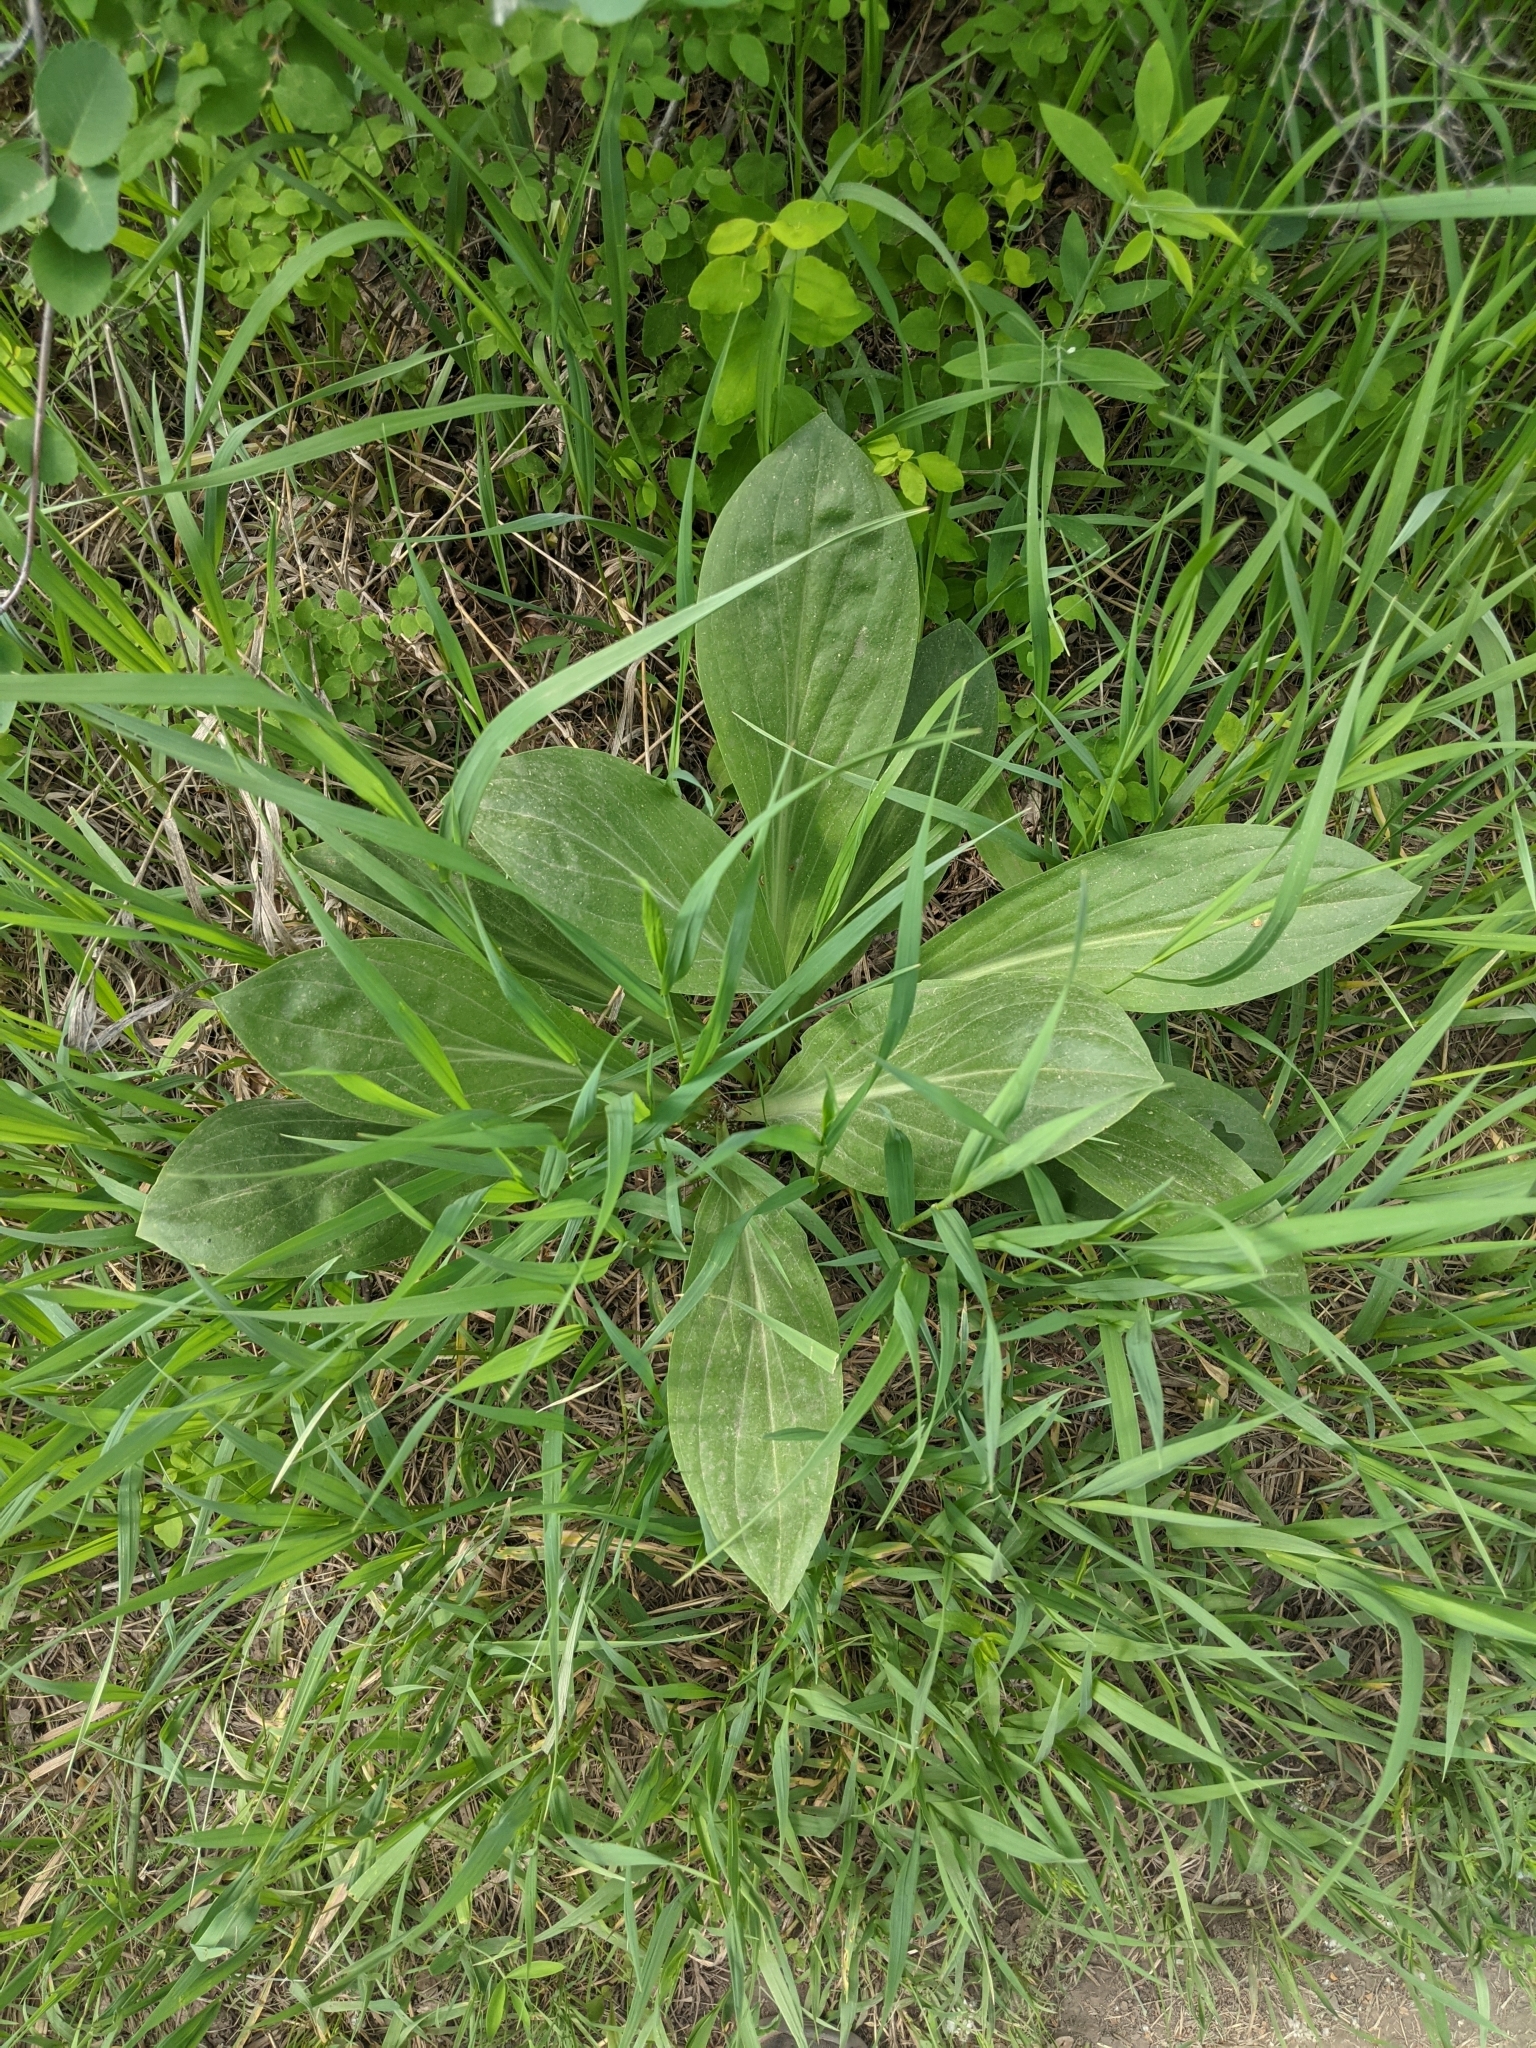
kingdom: Plantae
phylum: Tracheophyta
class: Magnoliopsida
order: Gentianales
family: Gentianaceae
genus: Frasera
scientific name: Frasera speciosa
